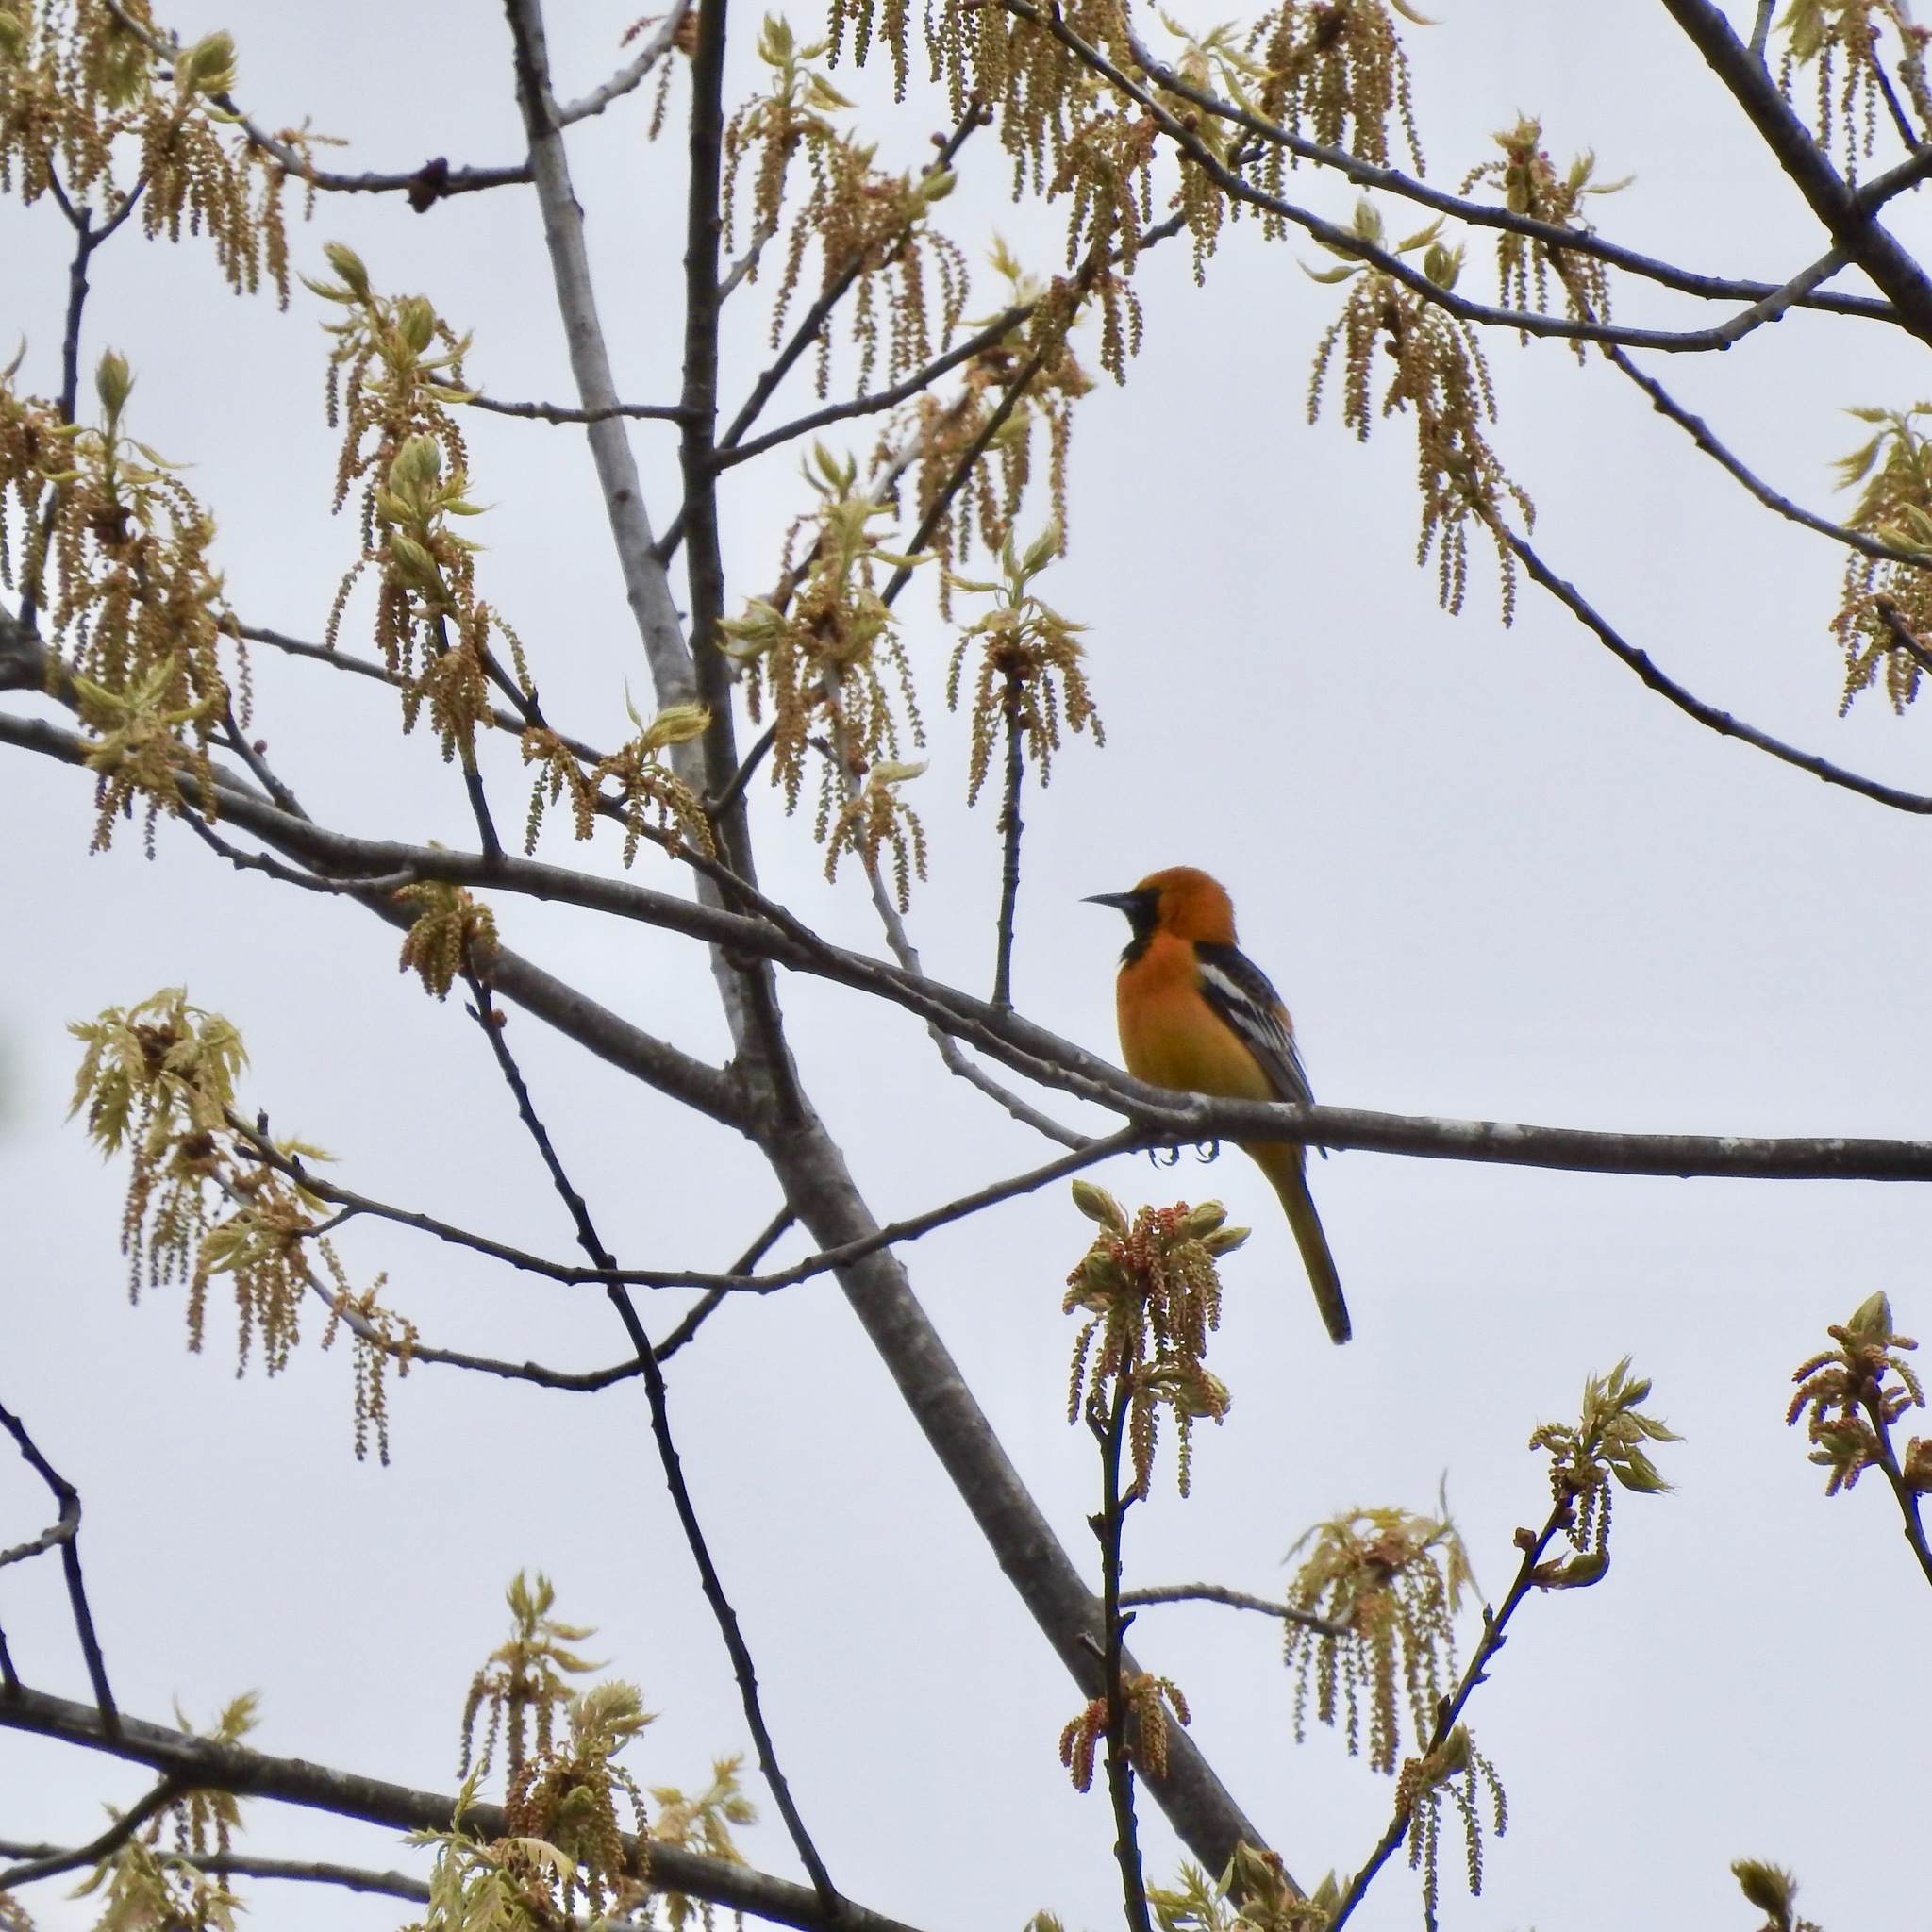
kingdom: Animalia
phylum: Chordata
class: Aves
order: Passeriformes
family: Icteridae
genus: Icterus
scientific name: Icterus cucullatus
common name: Hooded oriole
